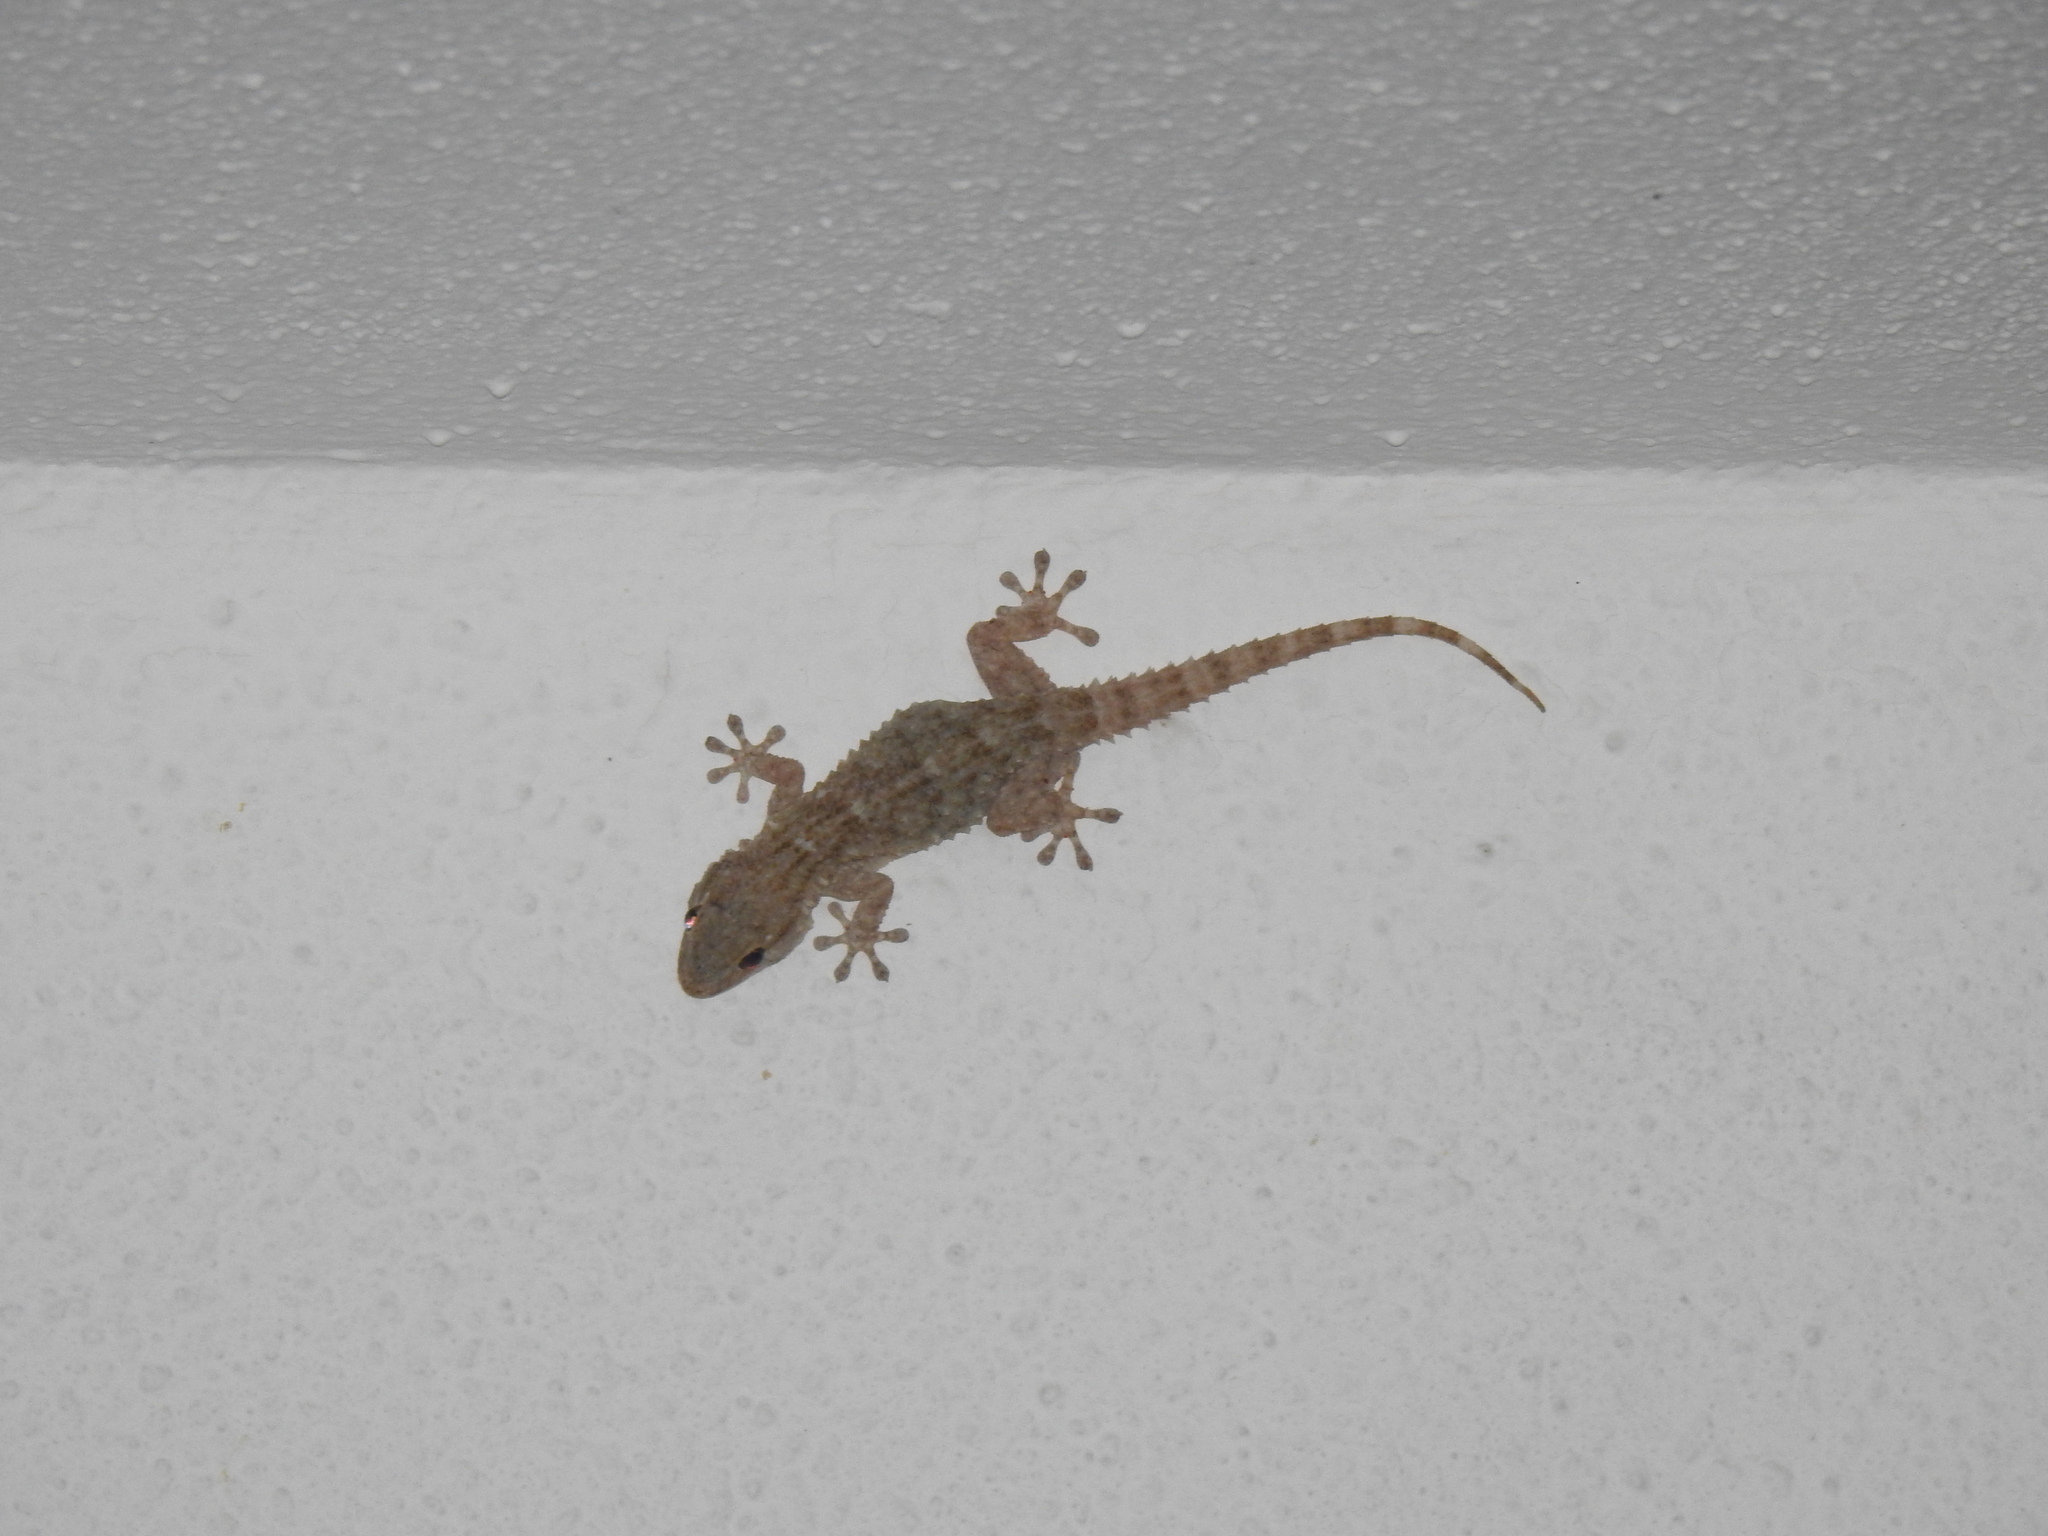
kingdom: Animalia
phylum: Chordata
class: Squamata
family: Phyllodactylidae
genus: Tarentola
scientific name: Tarentola mauritanica
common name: Moorish gecko
